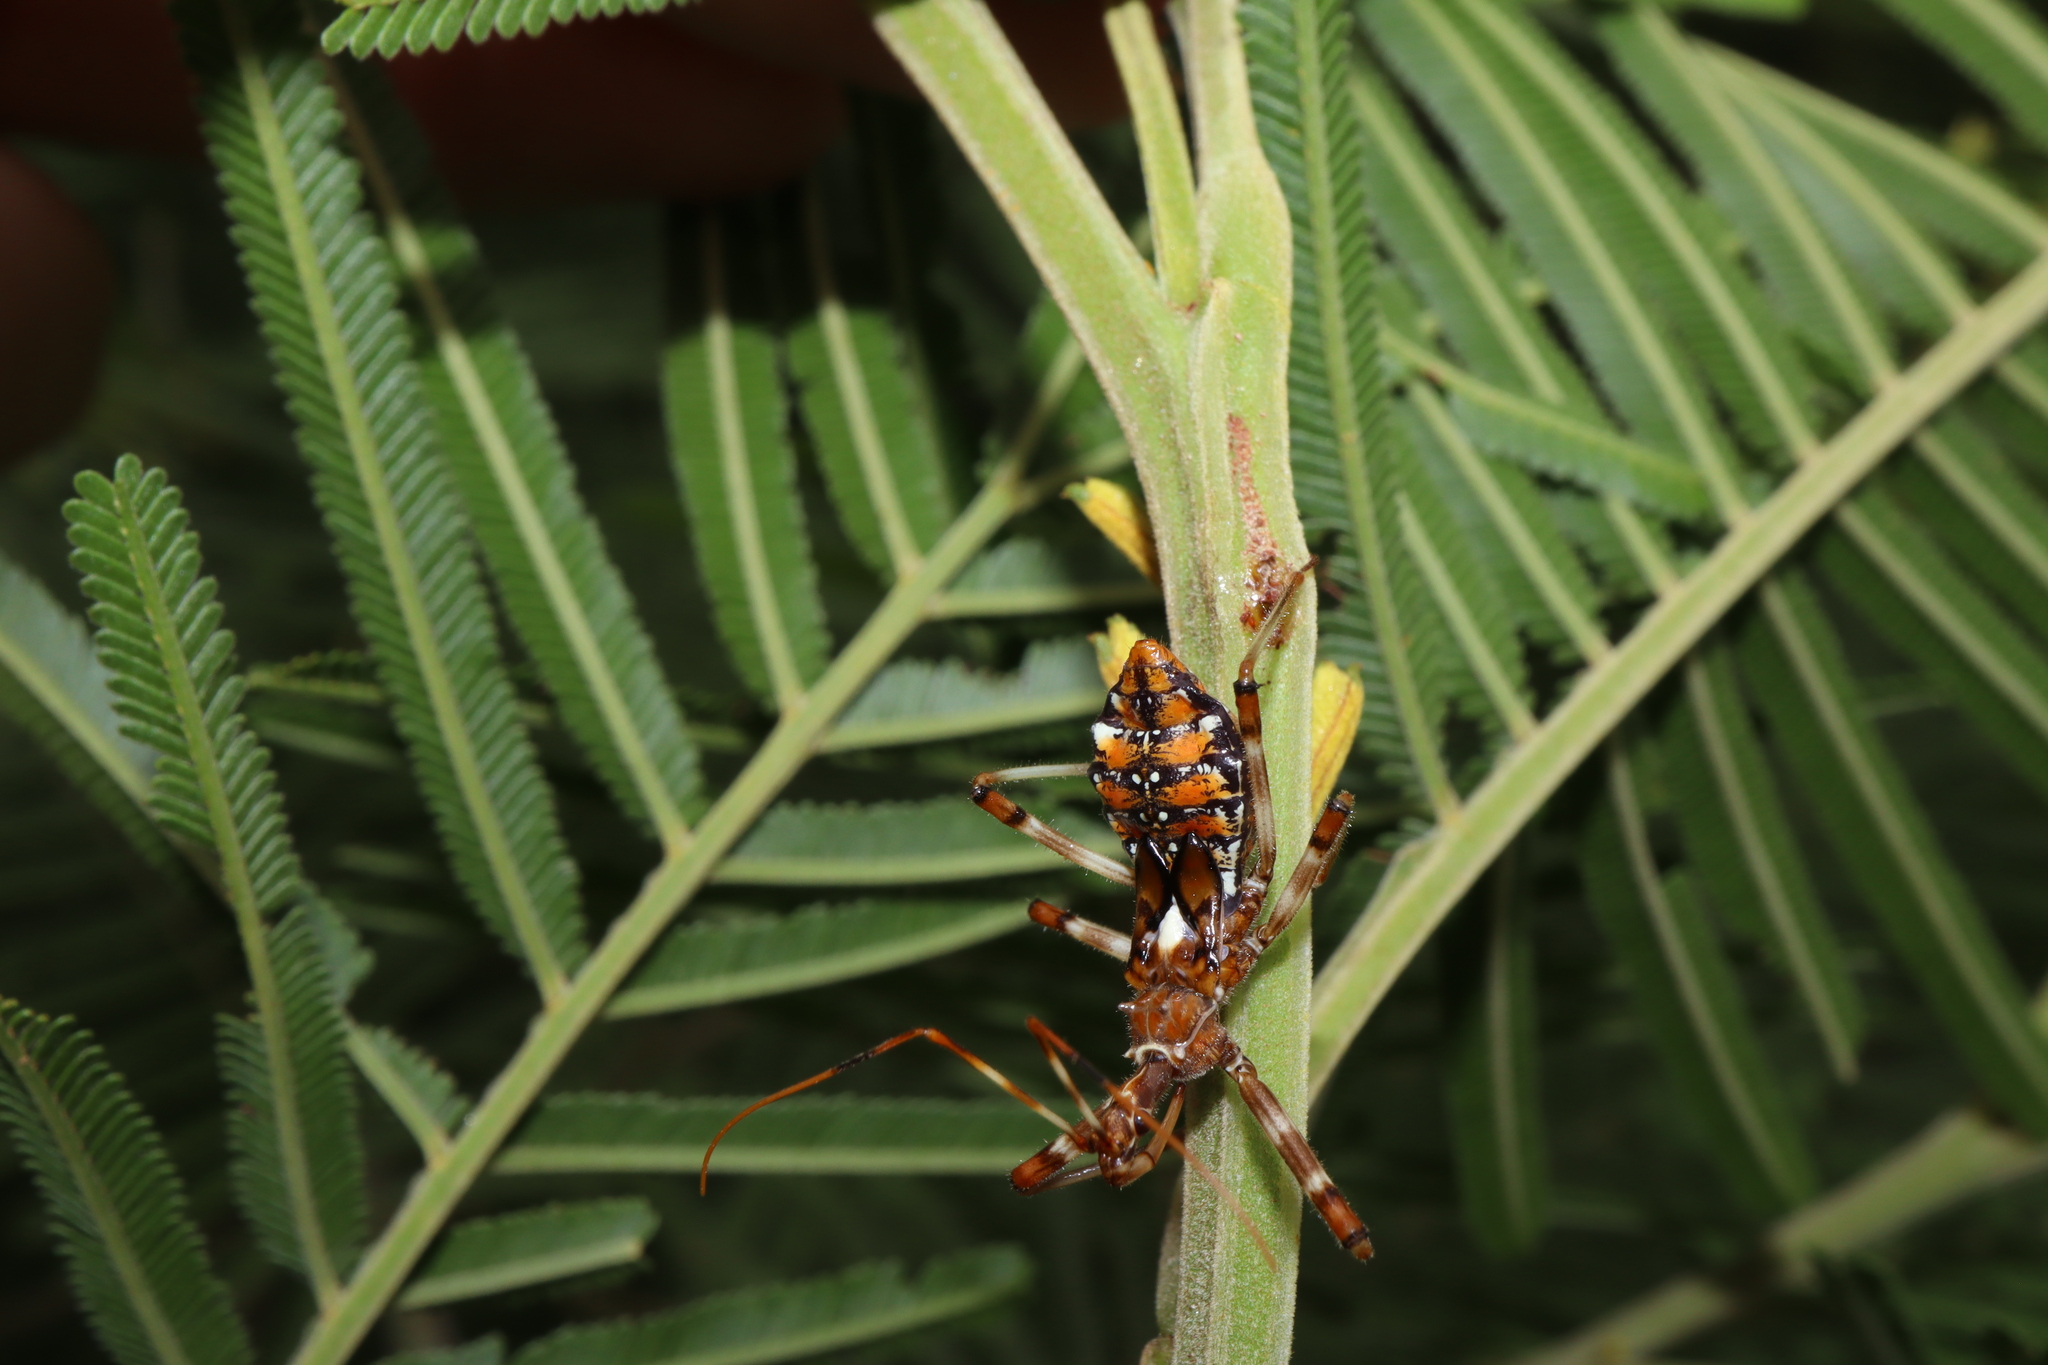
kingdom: Animalia
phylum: Arthropoda
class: Insecta
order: Hemiptera
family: Reduviidae
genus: Pristhesancus
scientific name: Pristhesancus plagipennis
